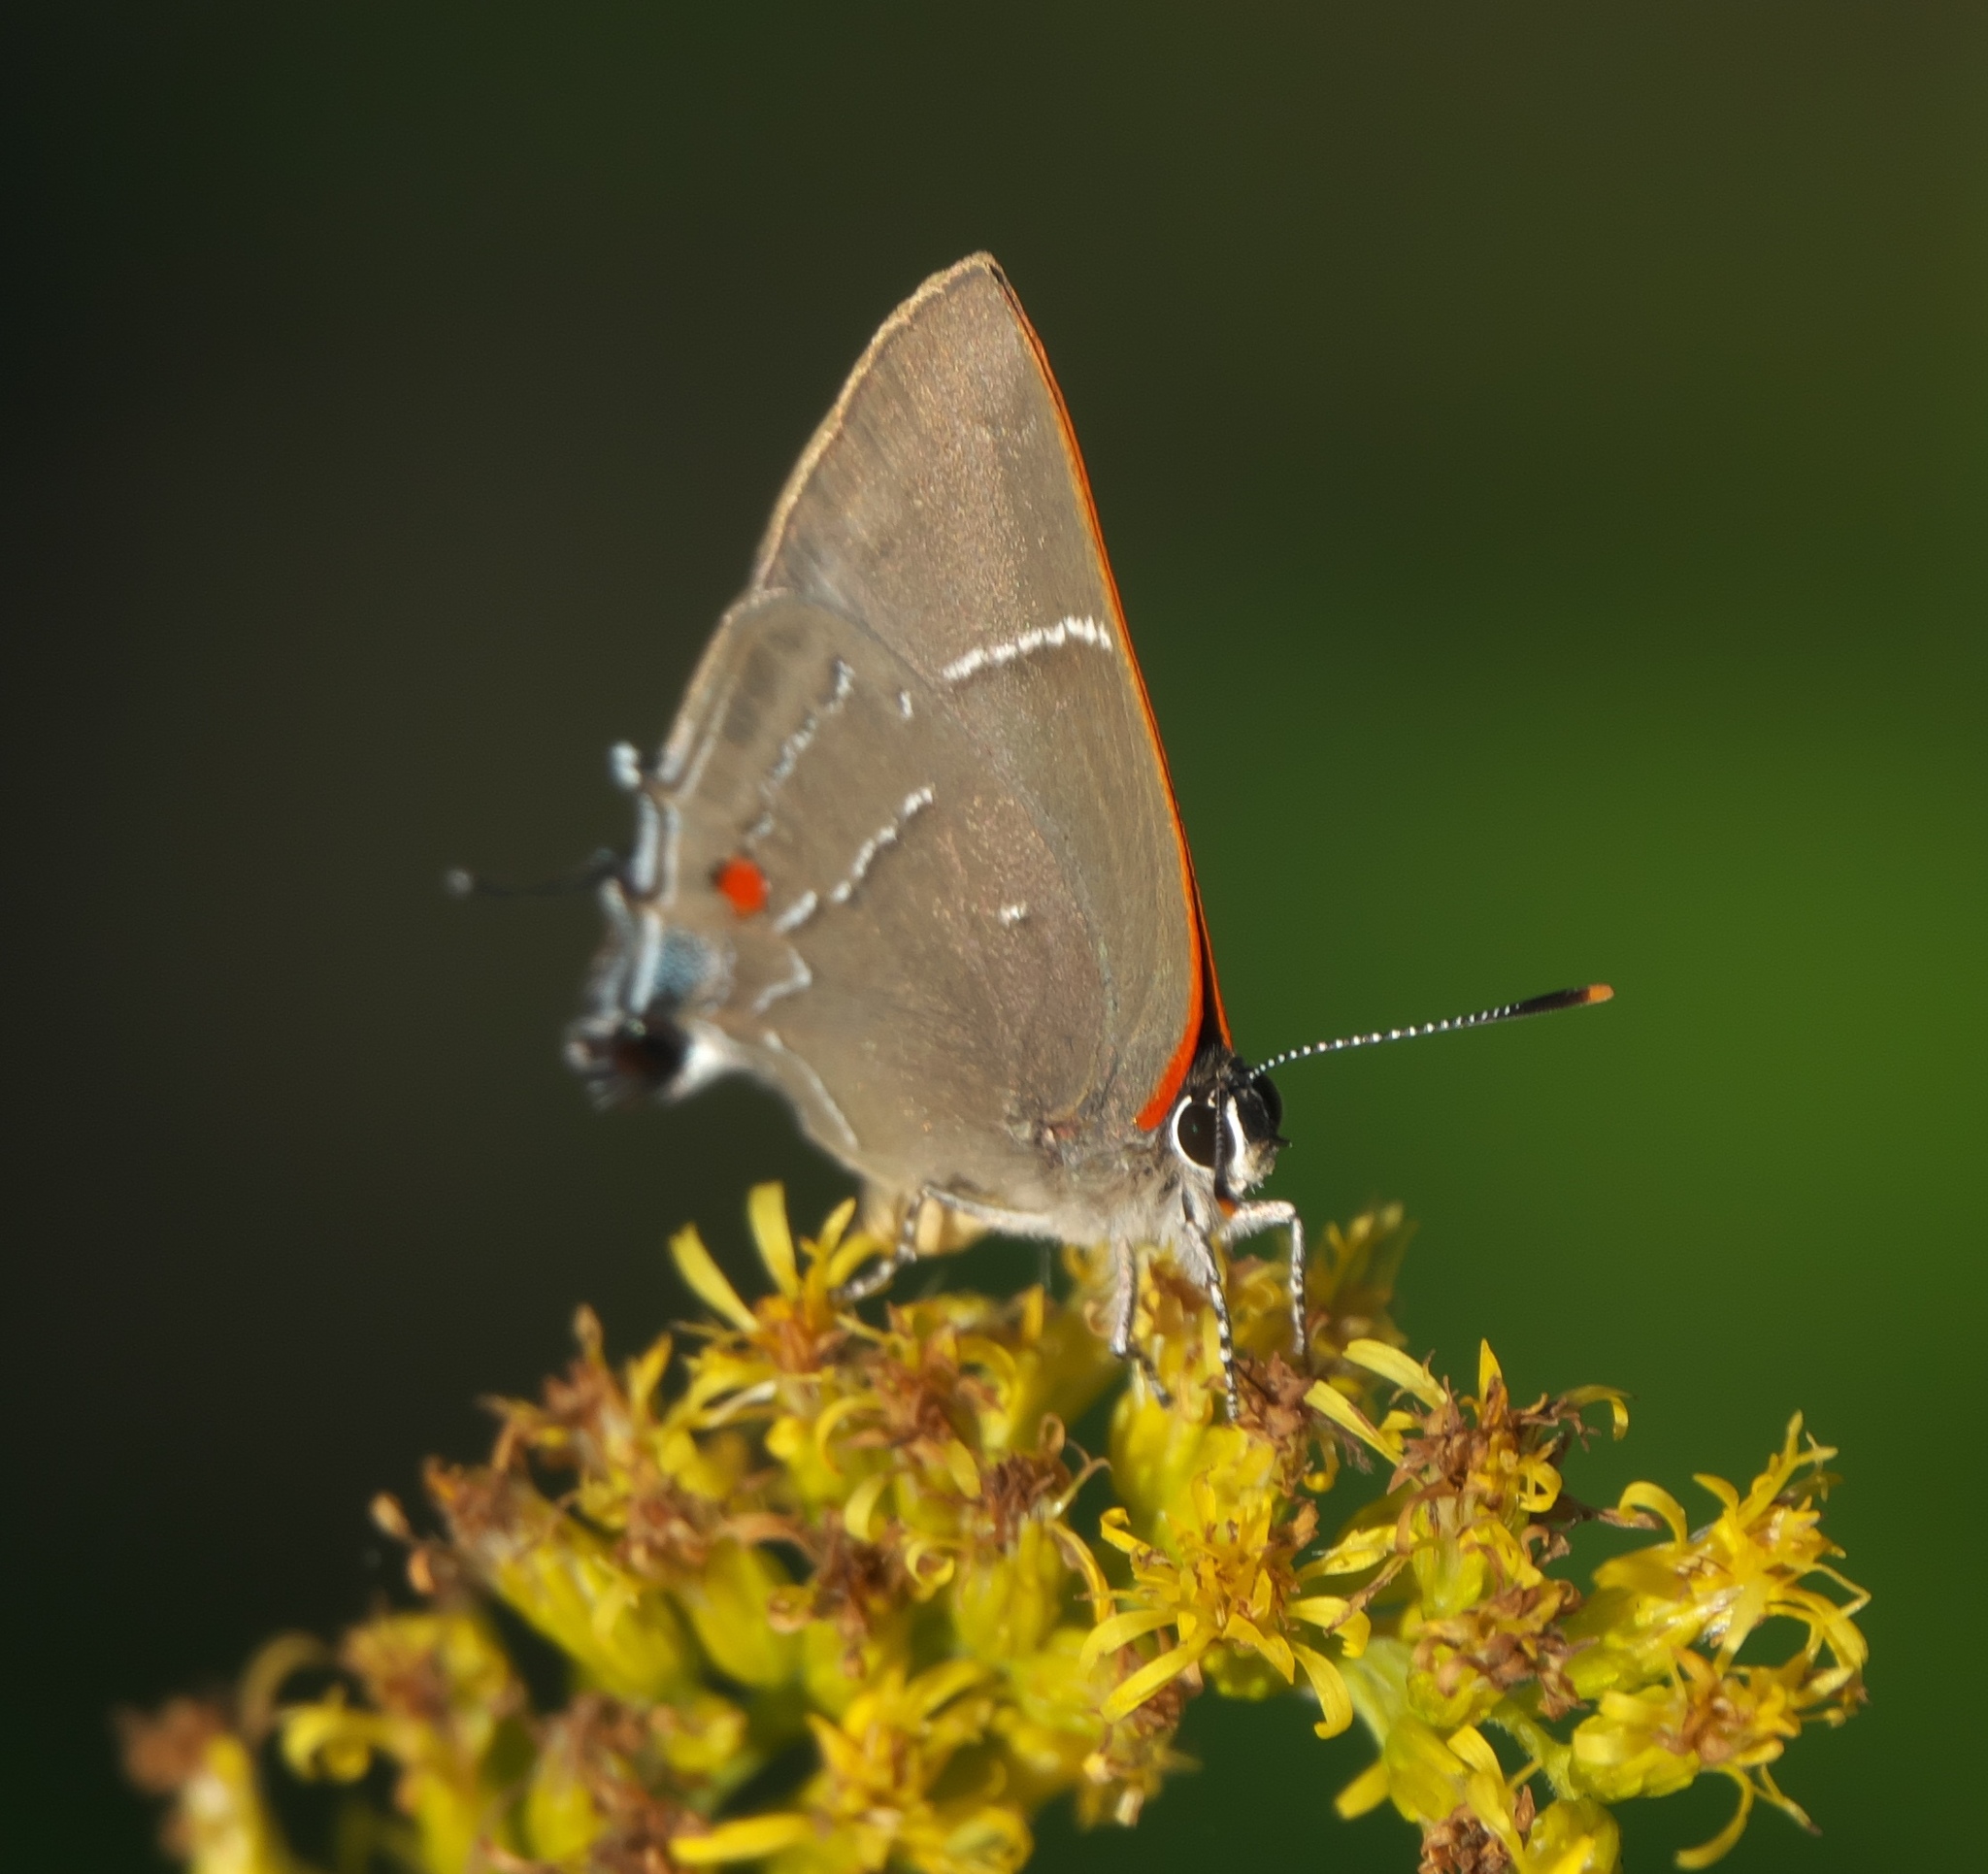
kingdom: Animalia
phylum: Arthropoda
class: Insecta
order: Lepidoptera
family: Lycaenidae
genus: Parrhasius
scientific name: Parrhasius m-album
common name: White m hairstreak
